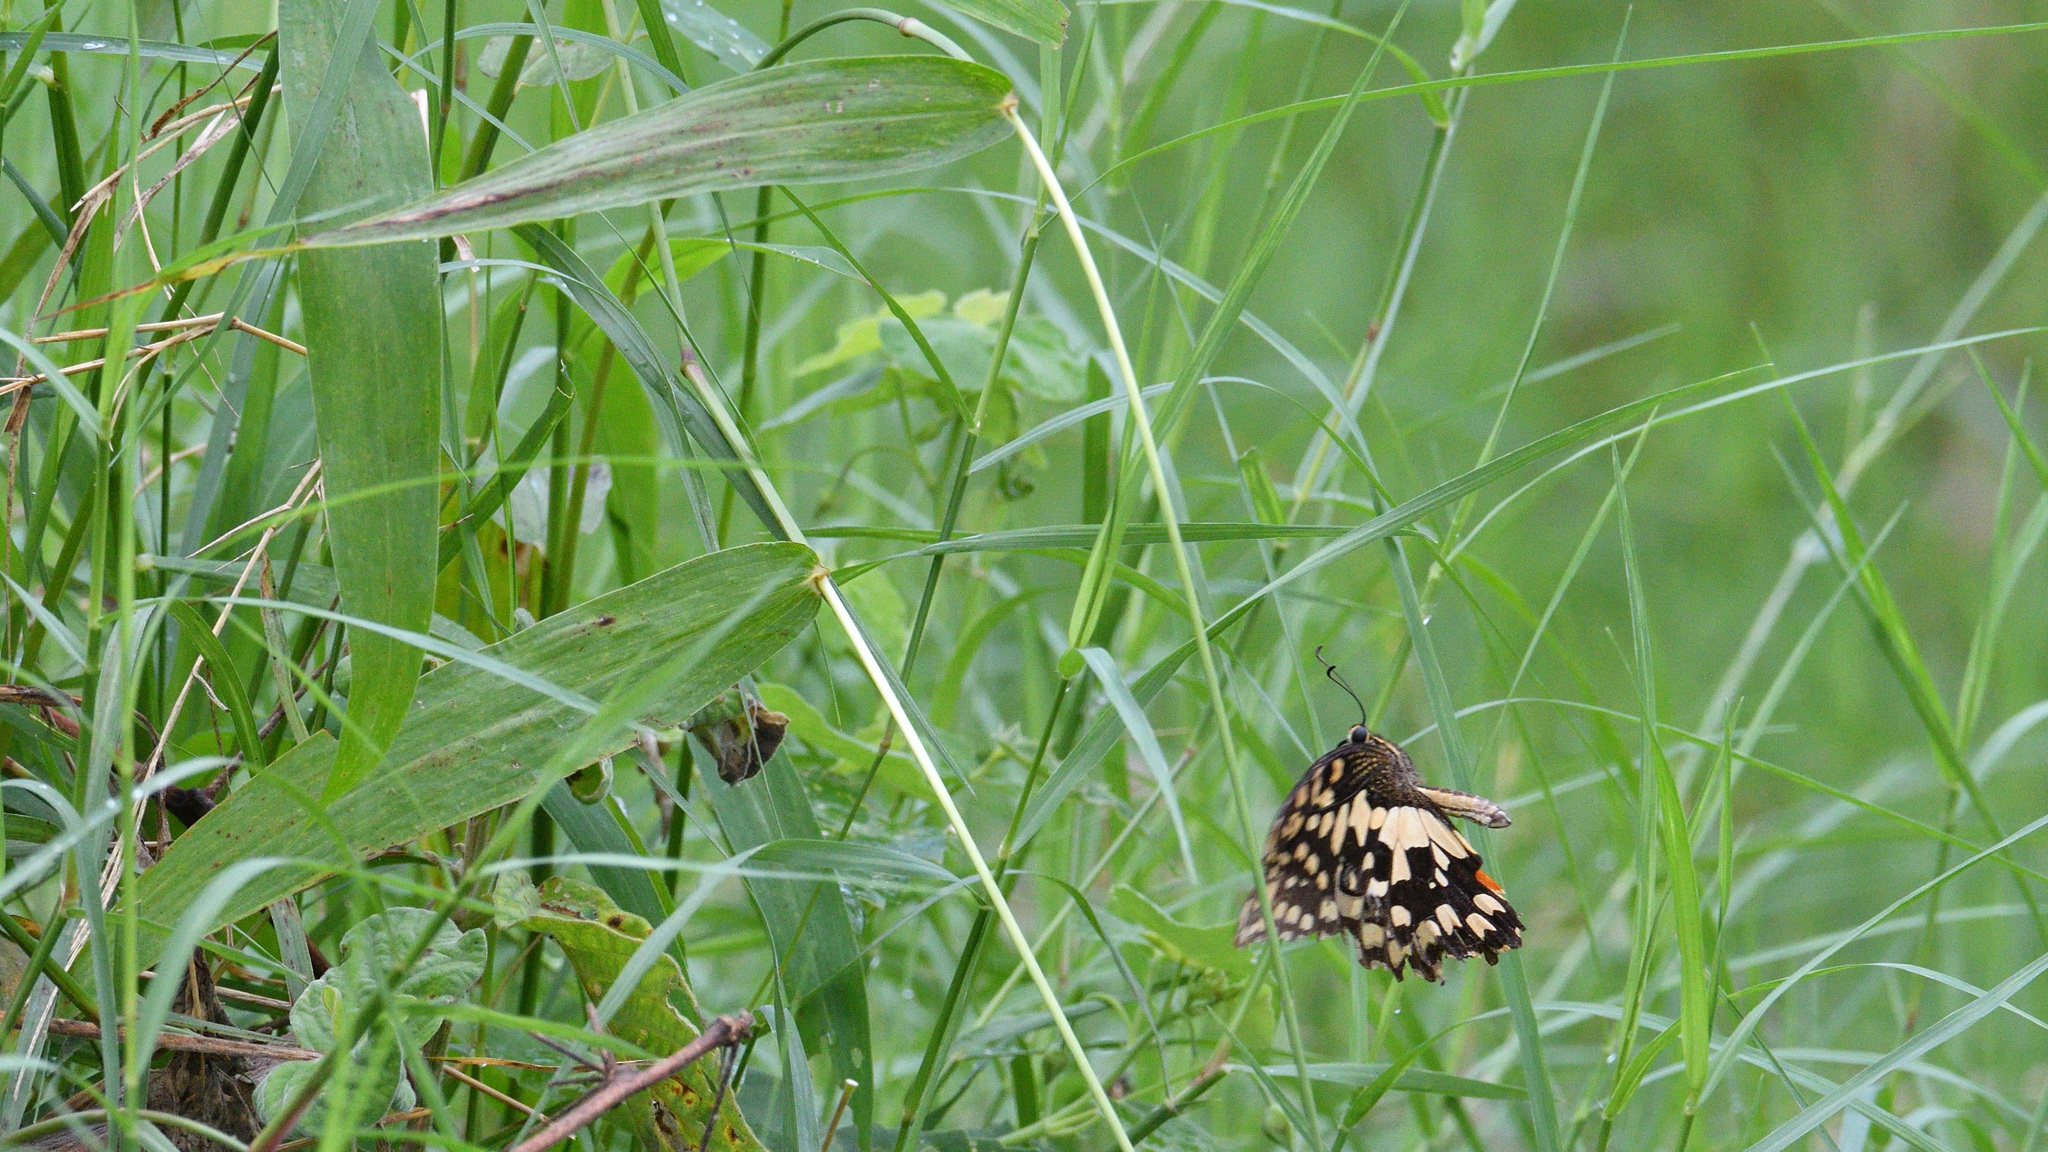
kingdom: Animalia
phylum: Arthropoda
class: Insecta
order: Lepidoptera
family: Papilionidae
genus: Papilio
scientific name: Papilio demoleus
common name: Lime butterfly
